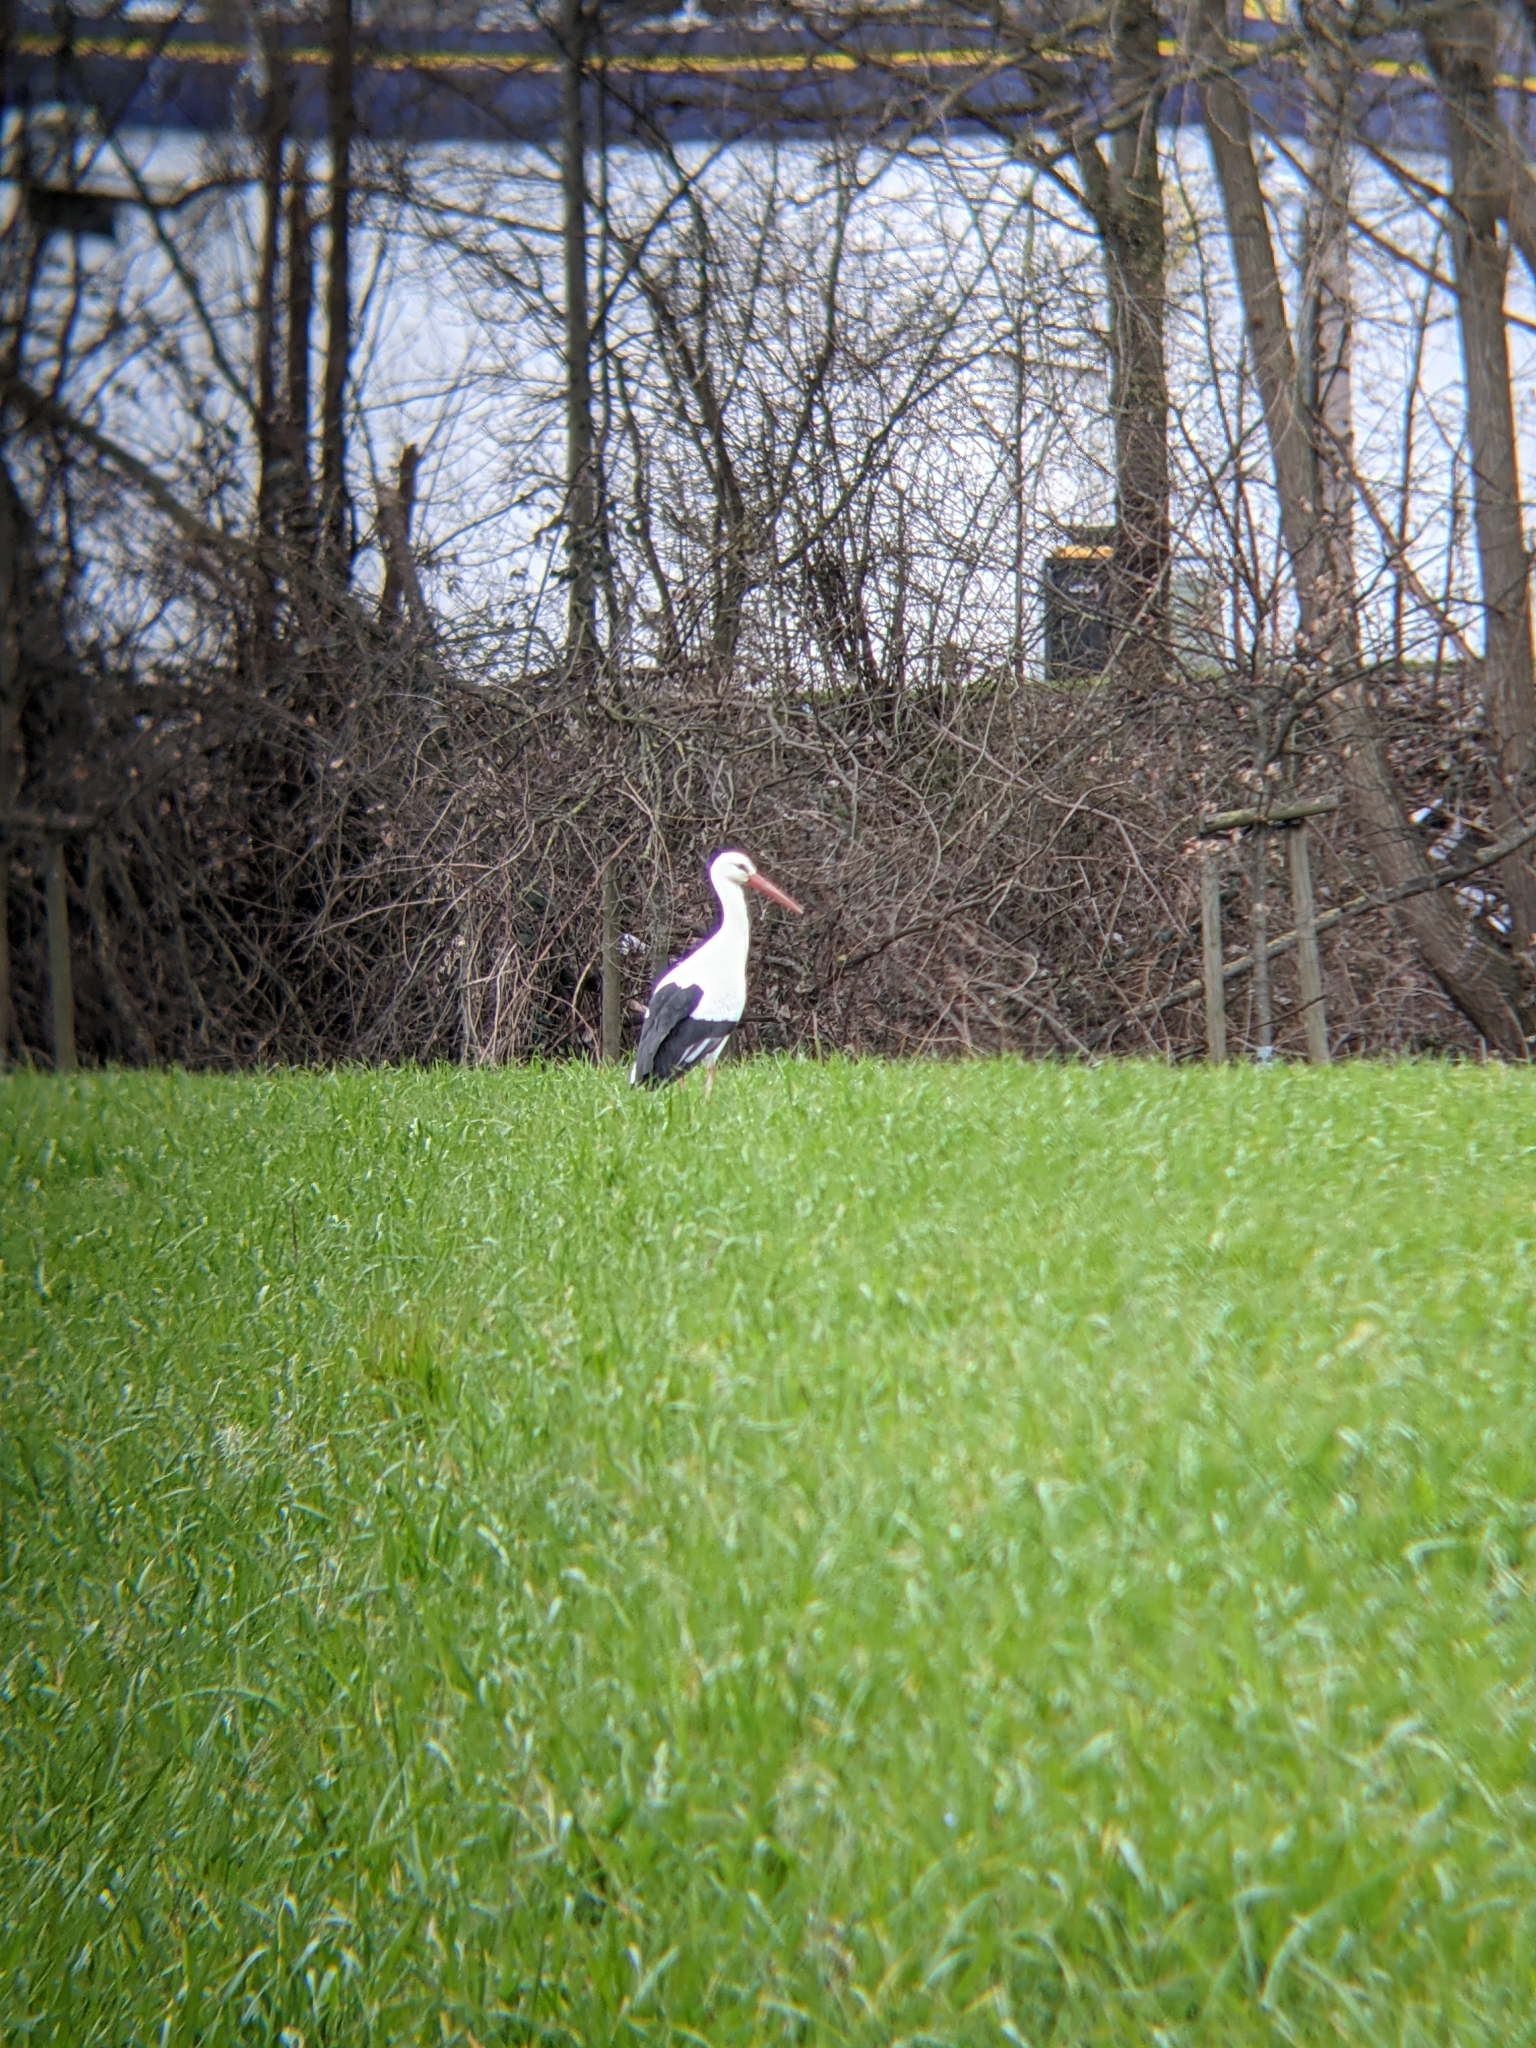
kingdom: Animalia
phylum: Chordata
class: Aves
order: Ciconiiformes
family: Ciconiidae
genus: Ciconia
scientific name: Ciconia ciconia
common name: White stork
